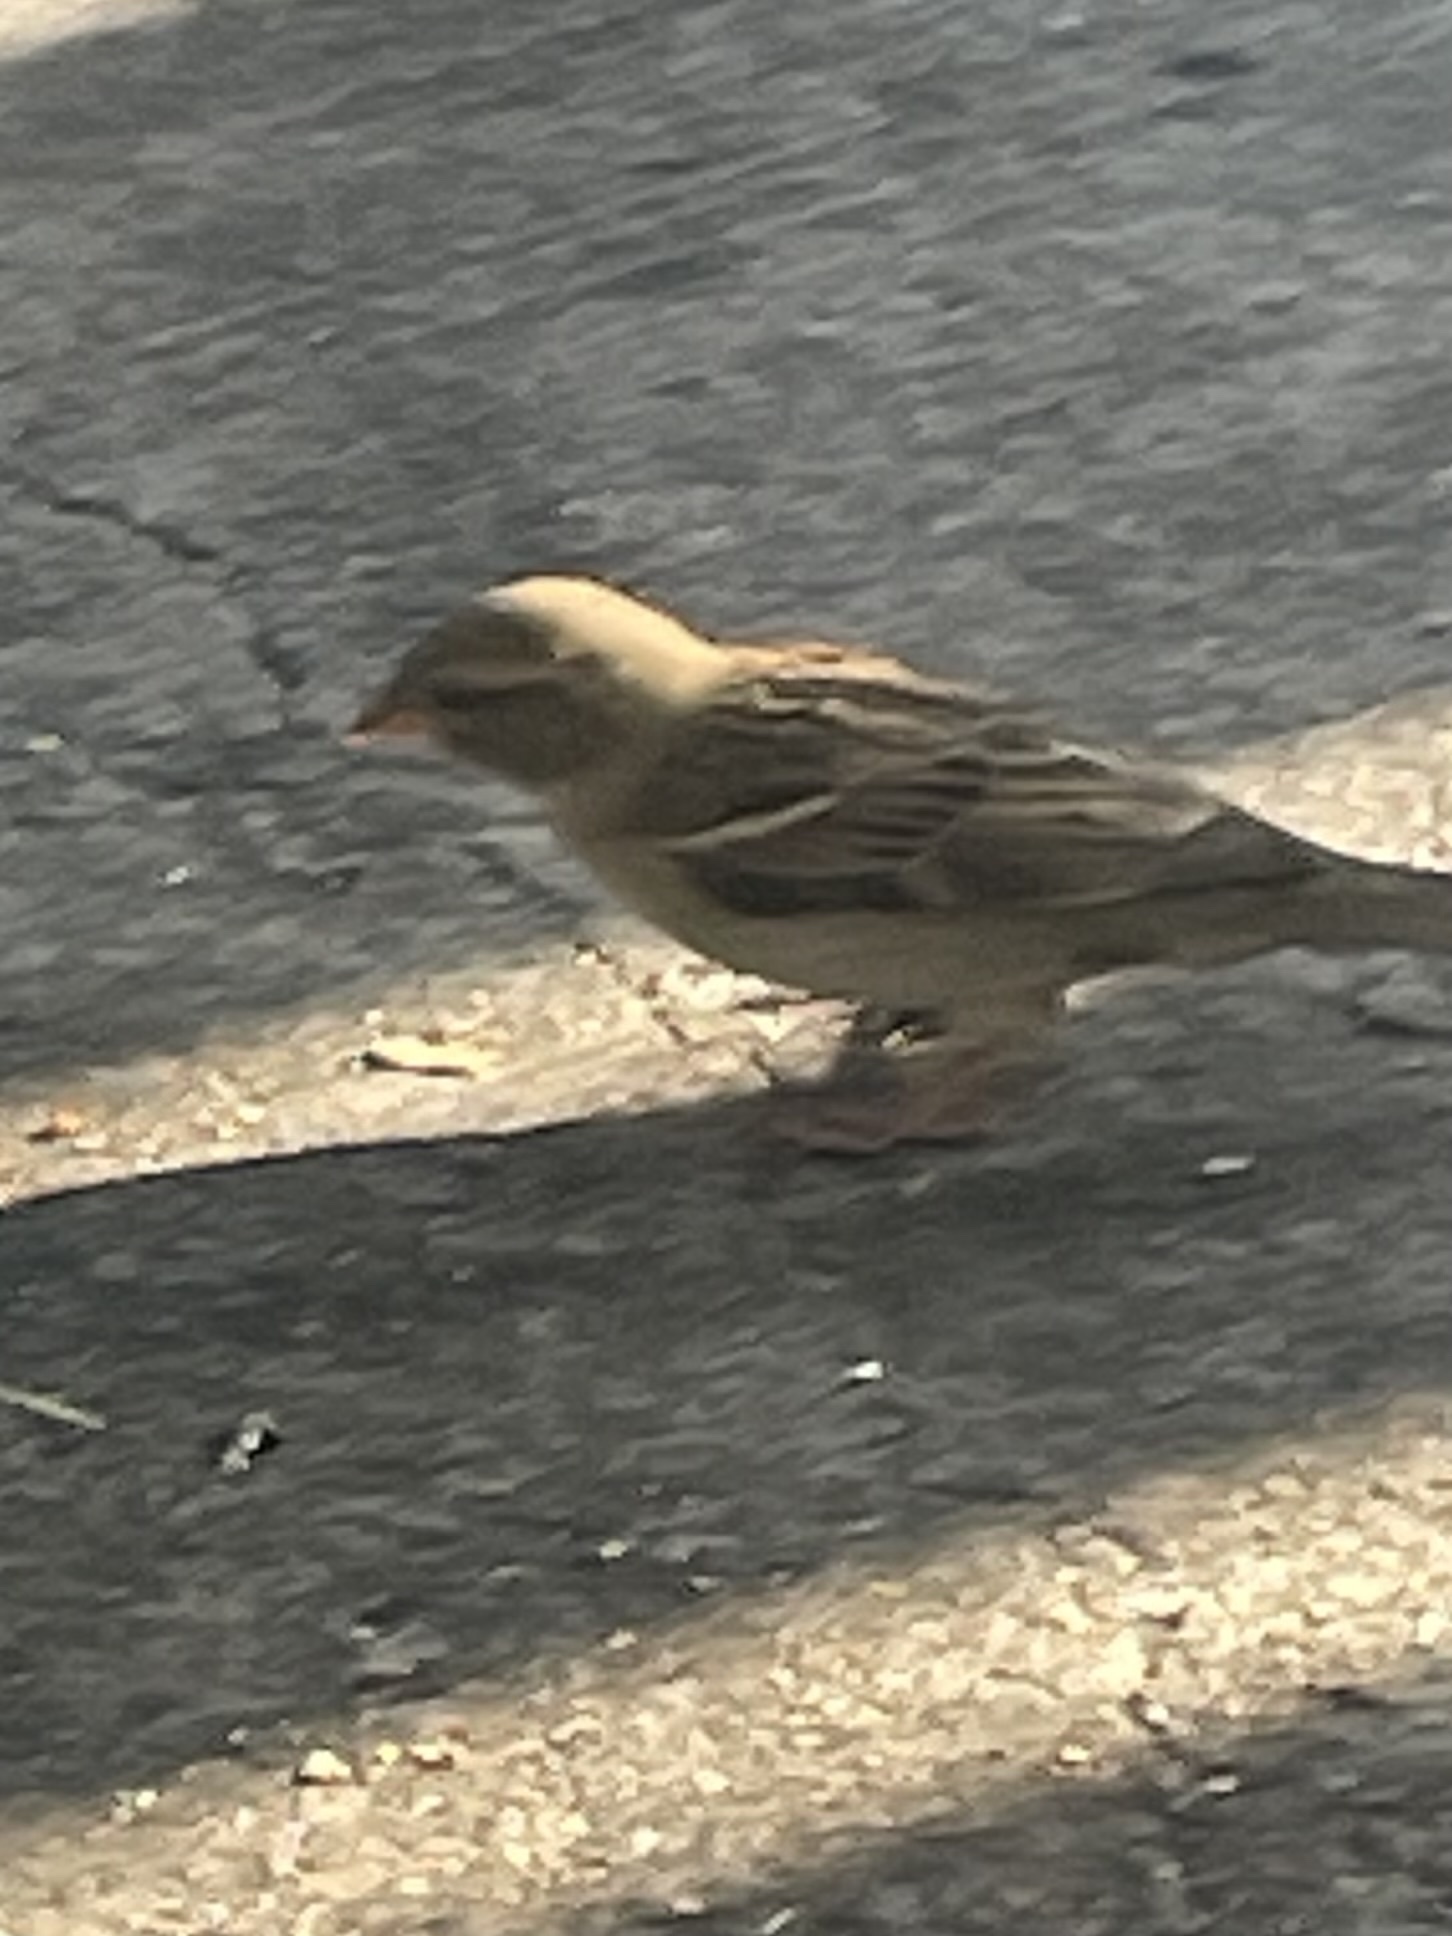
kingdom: Animalia
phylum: Chordata
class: Aves
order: Passeriformes
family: Passeridae
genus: Passer
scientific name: Passer domesticus
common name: House sparrow
